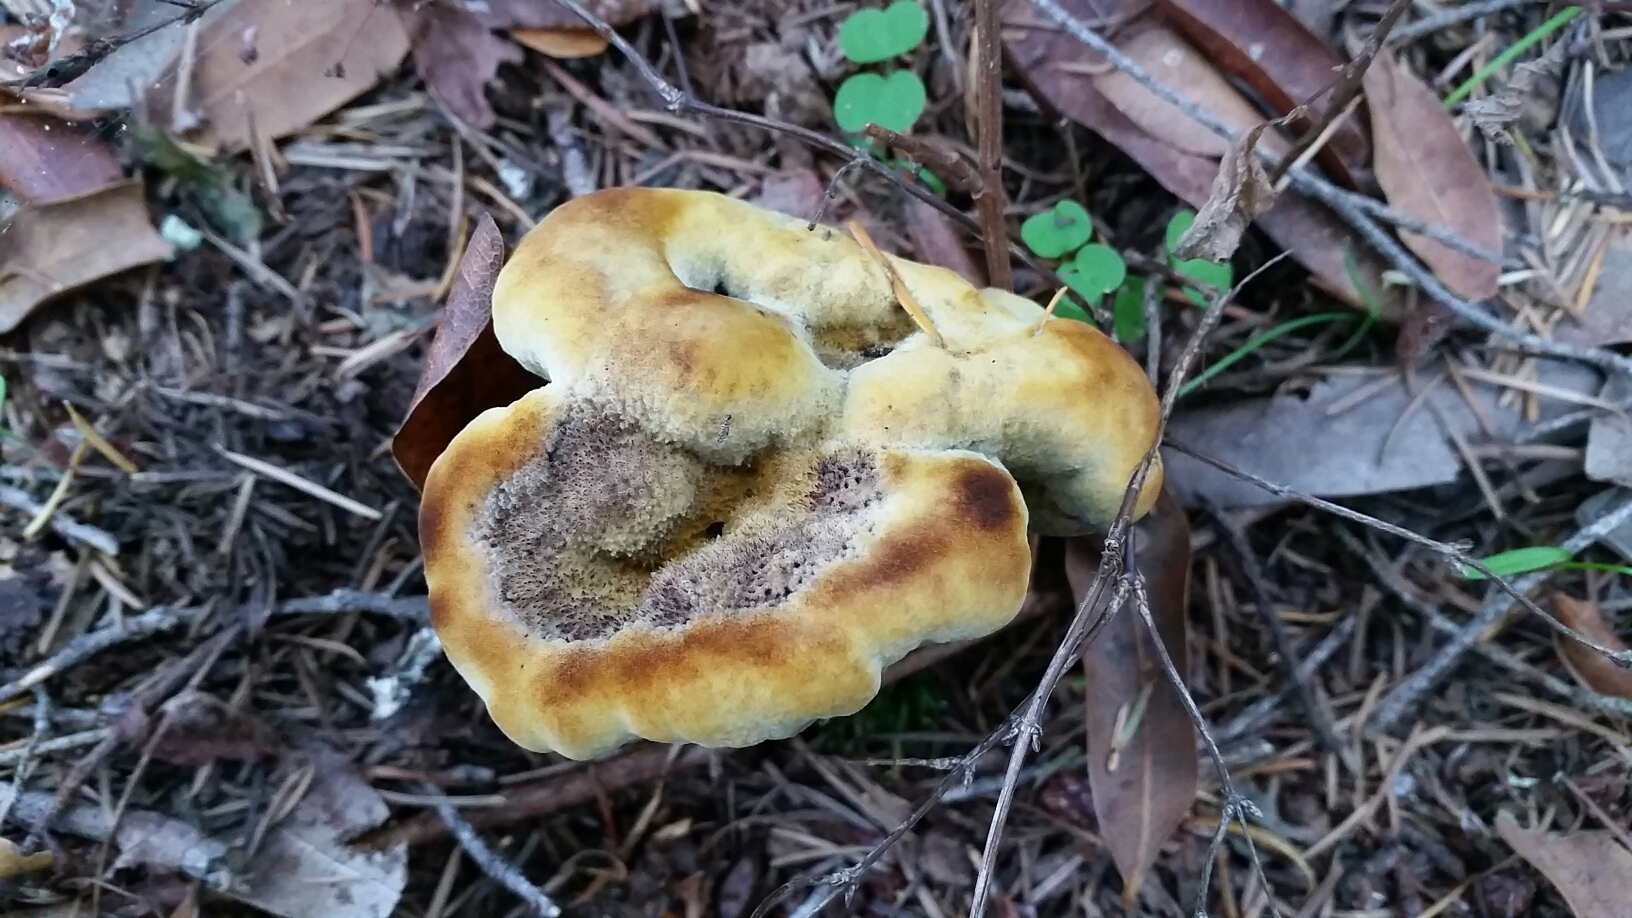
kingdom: Fungi
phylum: Basidiomycota
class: Agaricomycetes
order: Polyporales
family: Laetiporaceae
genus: Phaeolus
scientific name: Phaeolus schweinitzii
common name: Dyer's mazegill
